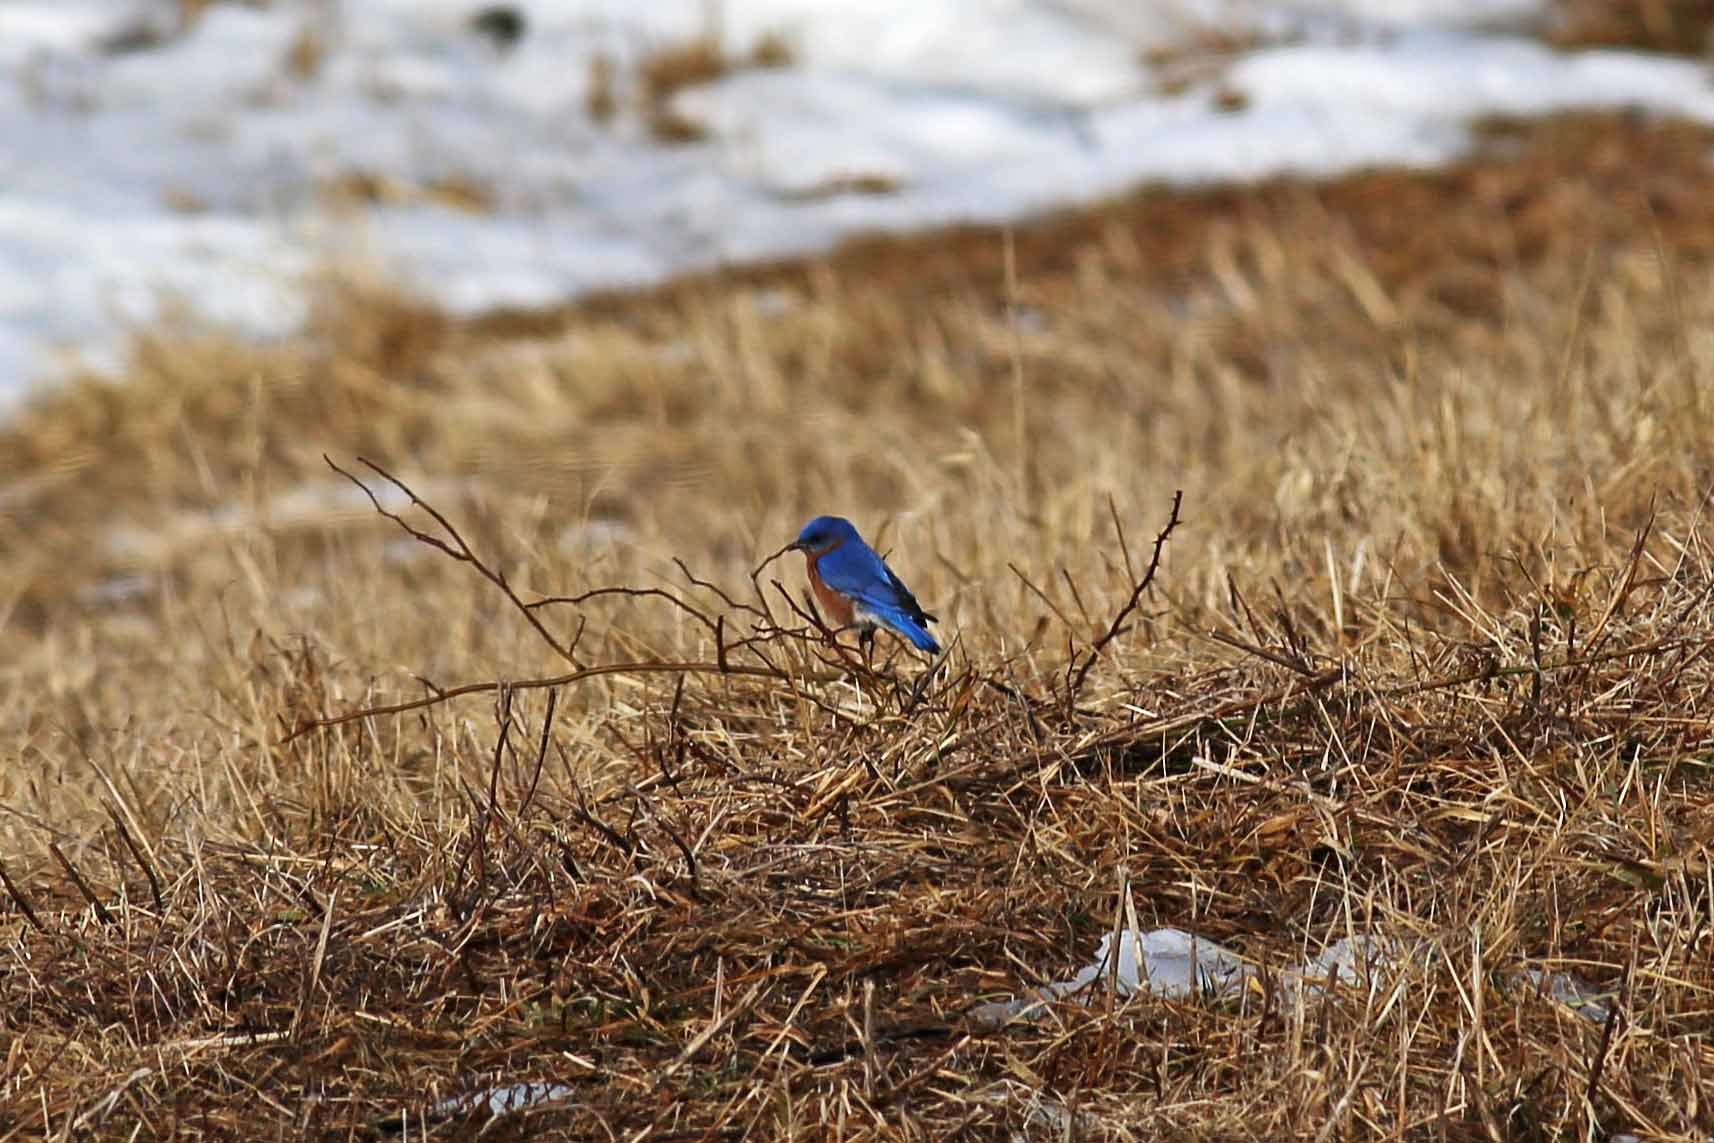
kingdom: Animalia
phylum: Chordata
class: Aves
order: Passeriformes
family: Turdidae
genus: Sialia
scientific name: Sialia sialis
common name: Eastern bluebird
